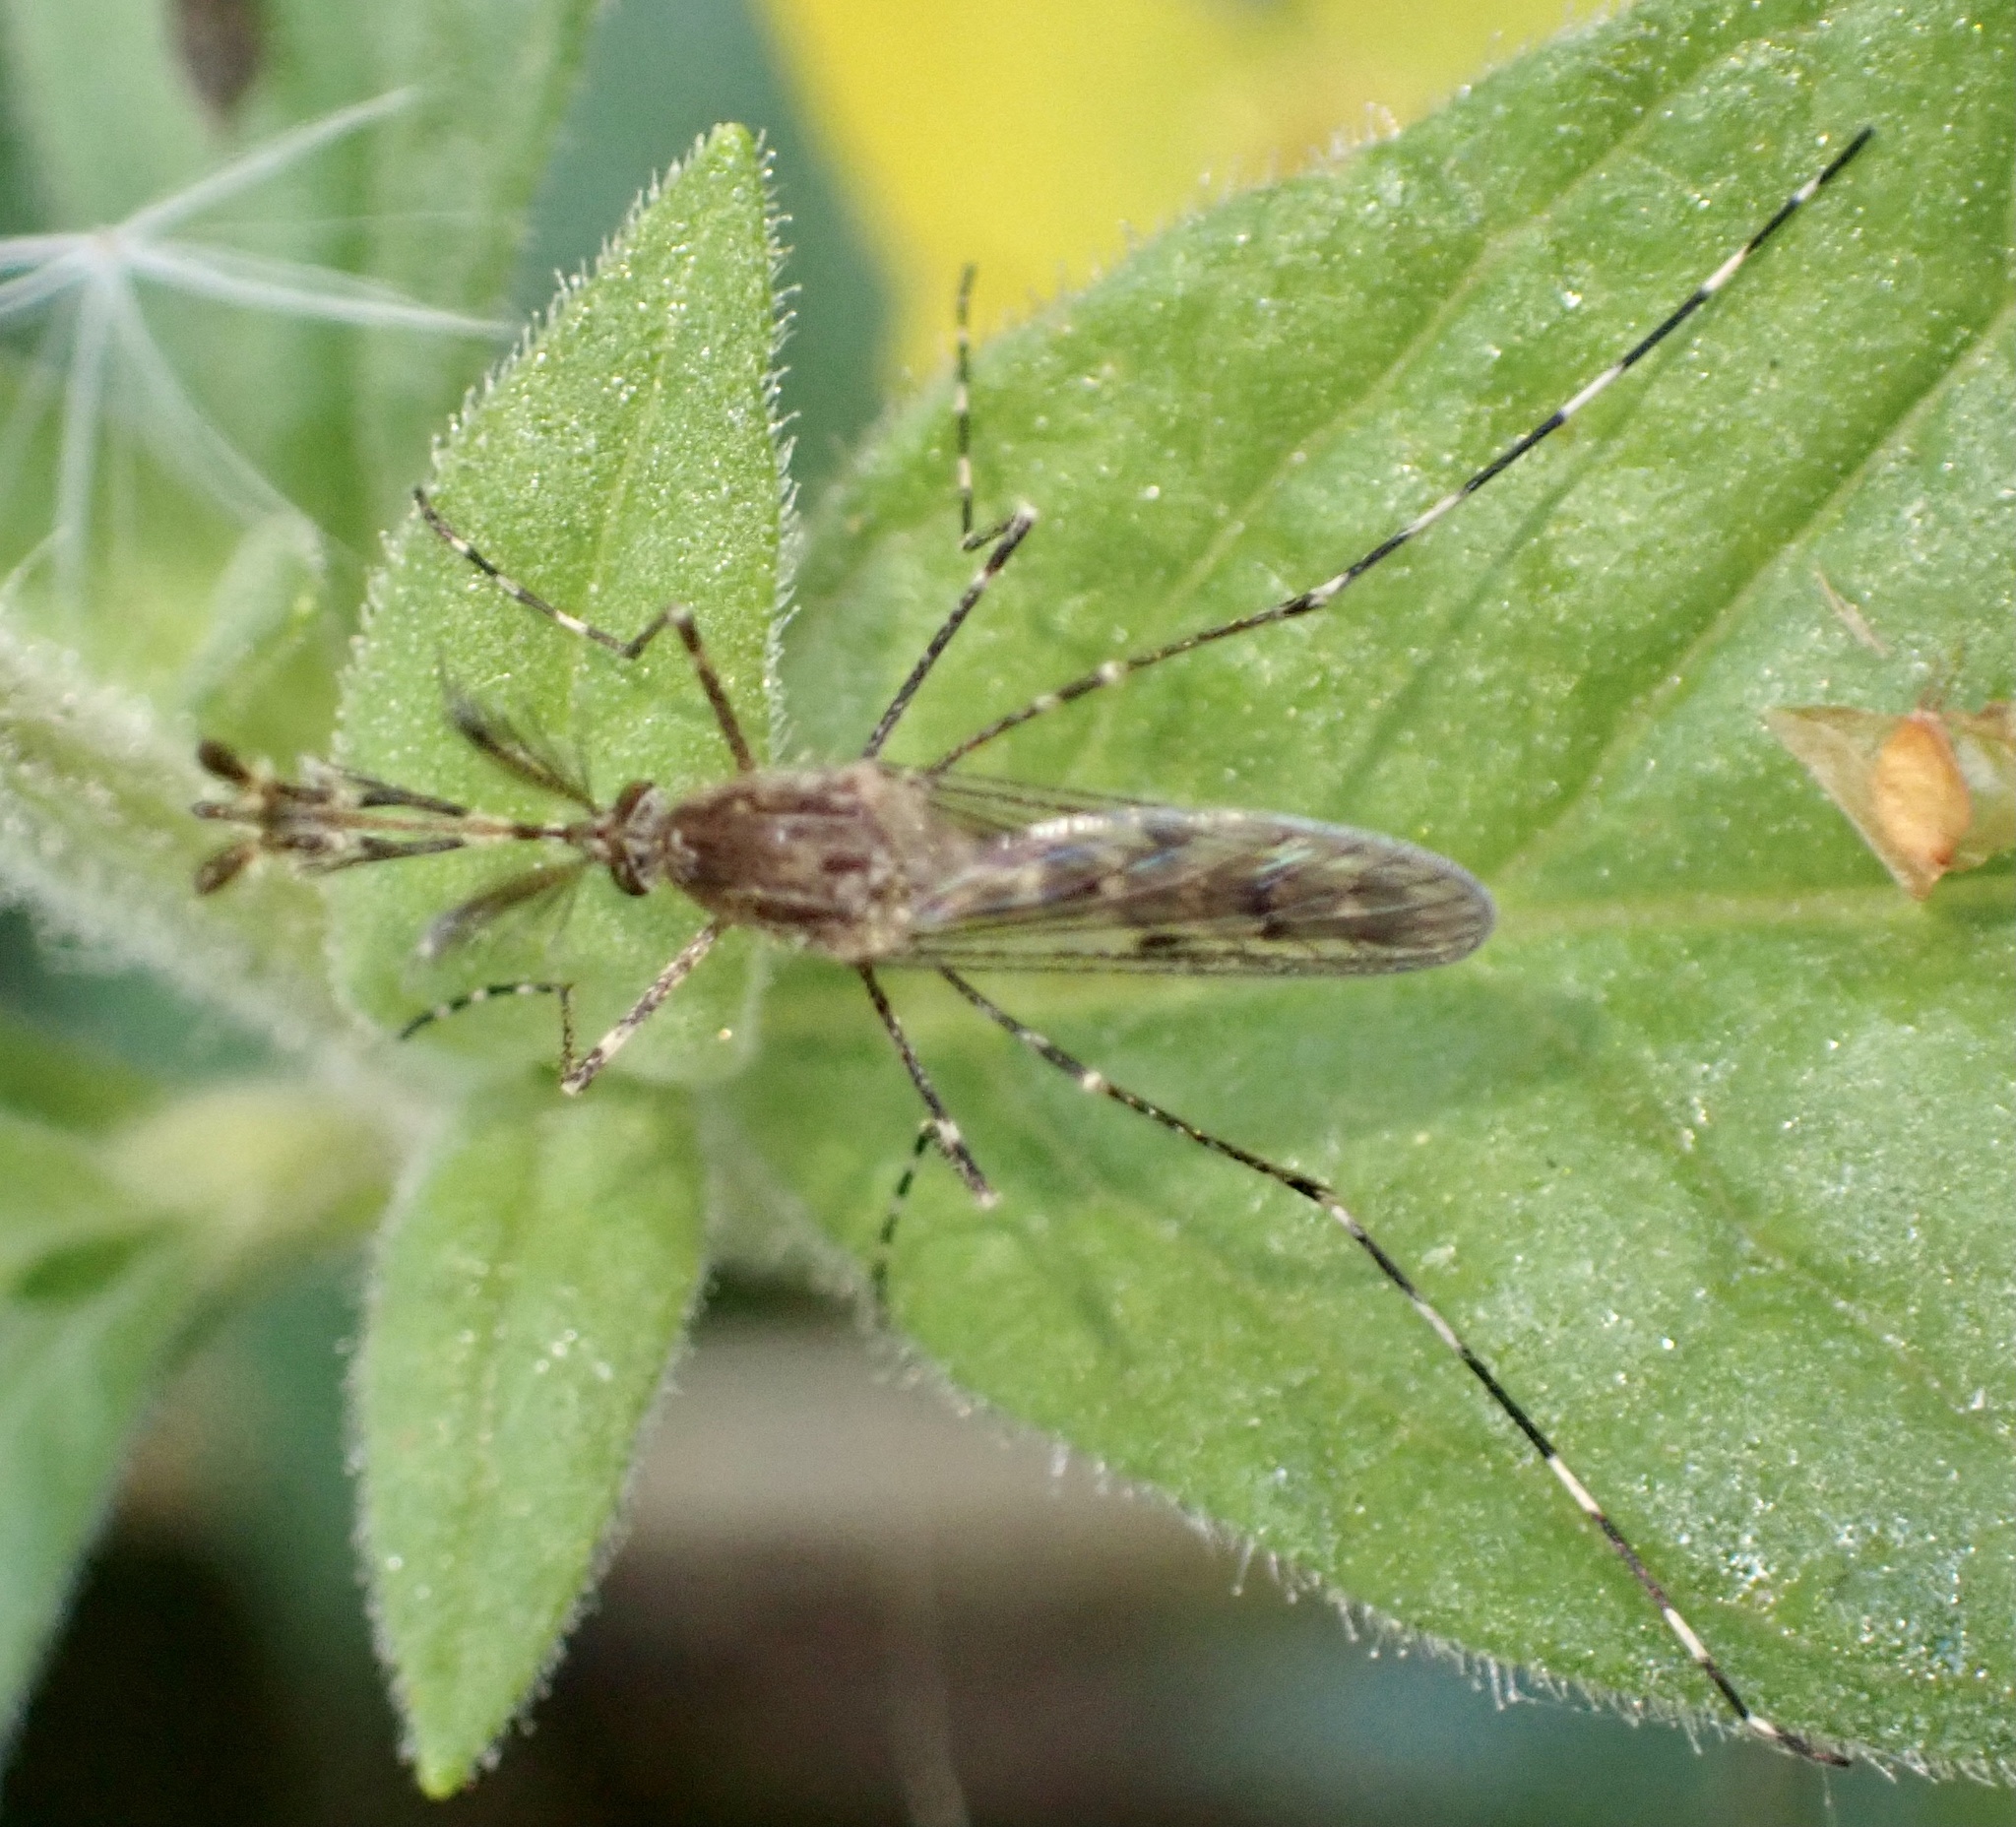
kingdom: Animalia
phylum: Arthropoda
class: Insecta
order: Diptera
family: Culicidae
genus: Culiseta
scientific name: Culiseta annulata
